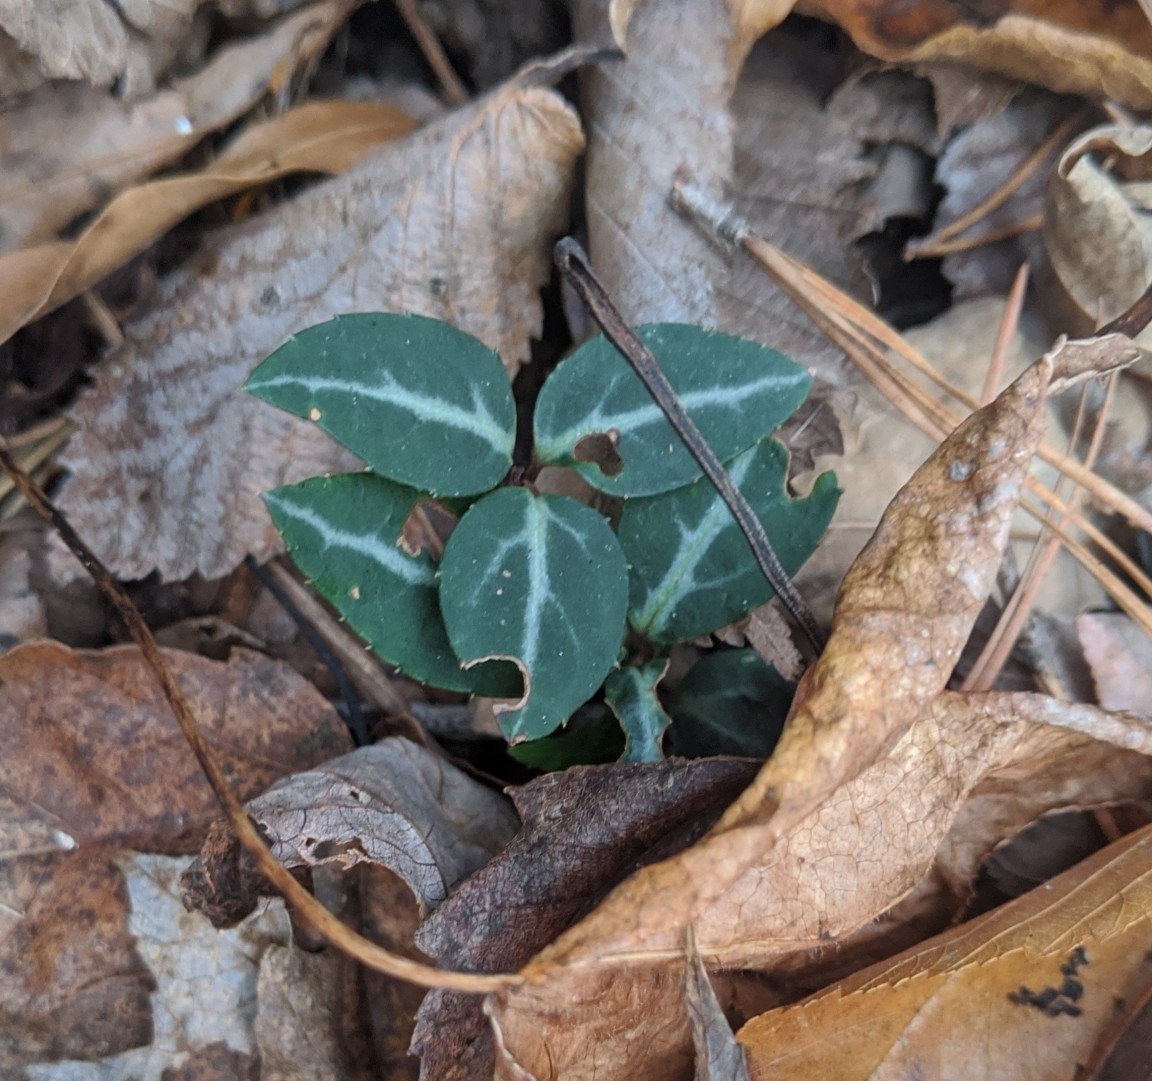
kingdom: Plantae
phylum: Tracheophyta
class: Magnoliopsida
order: Ericales
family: Ericaceae
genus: Chimaphila
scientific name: Chimaphila maculata
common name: Spotted pipsissewa
